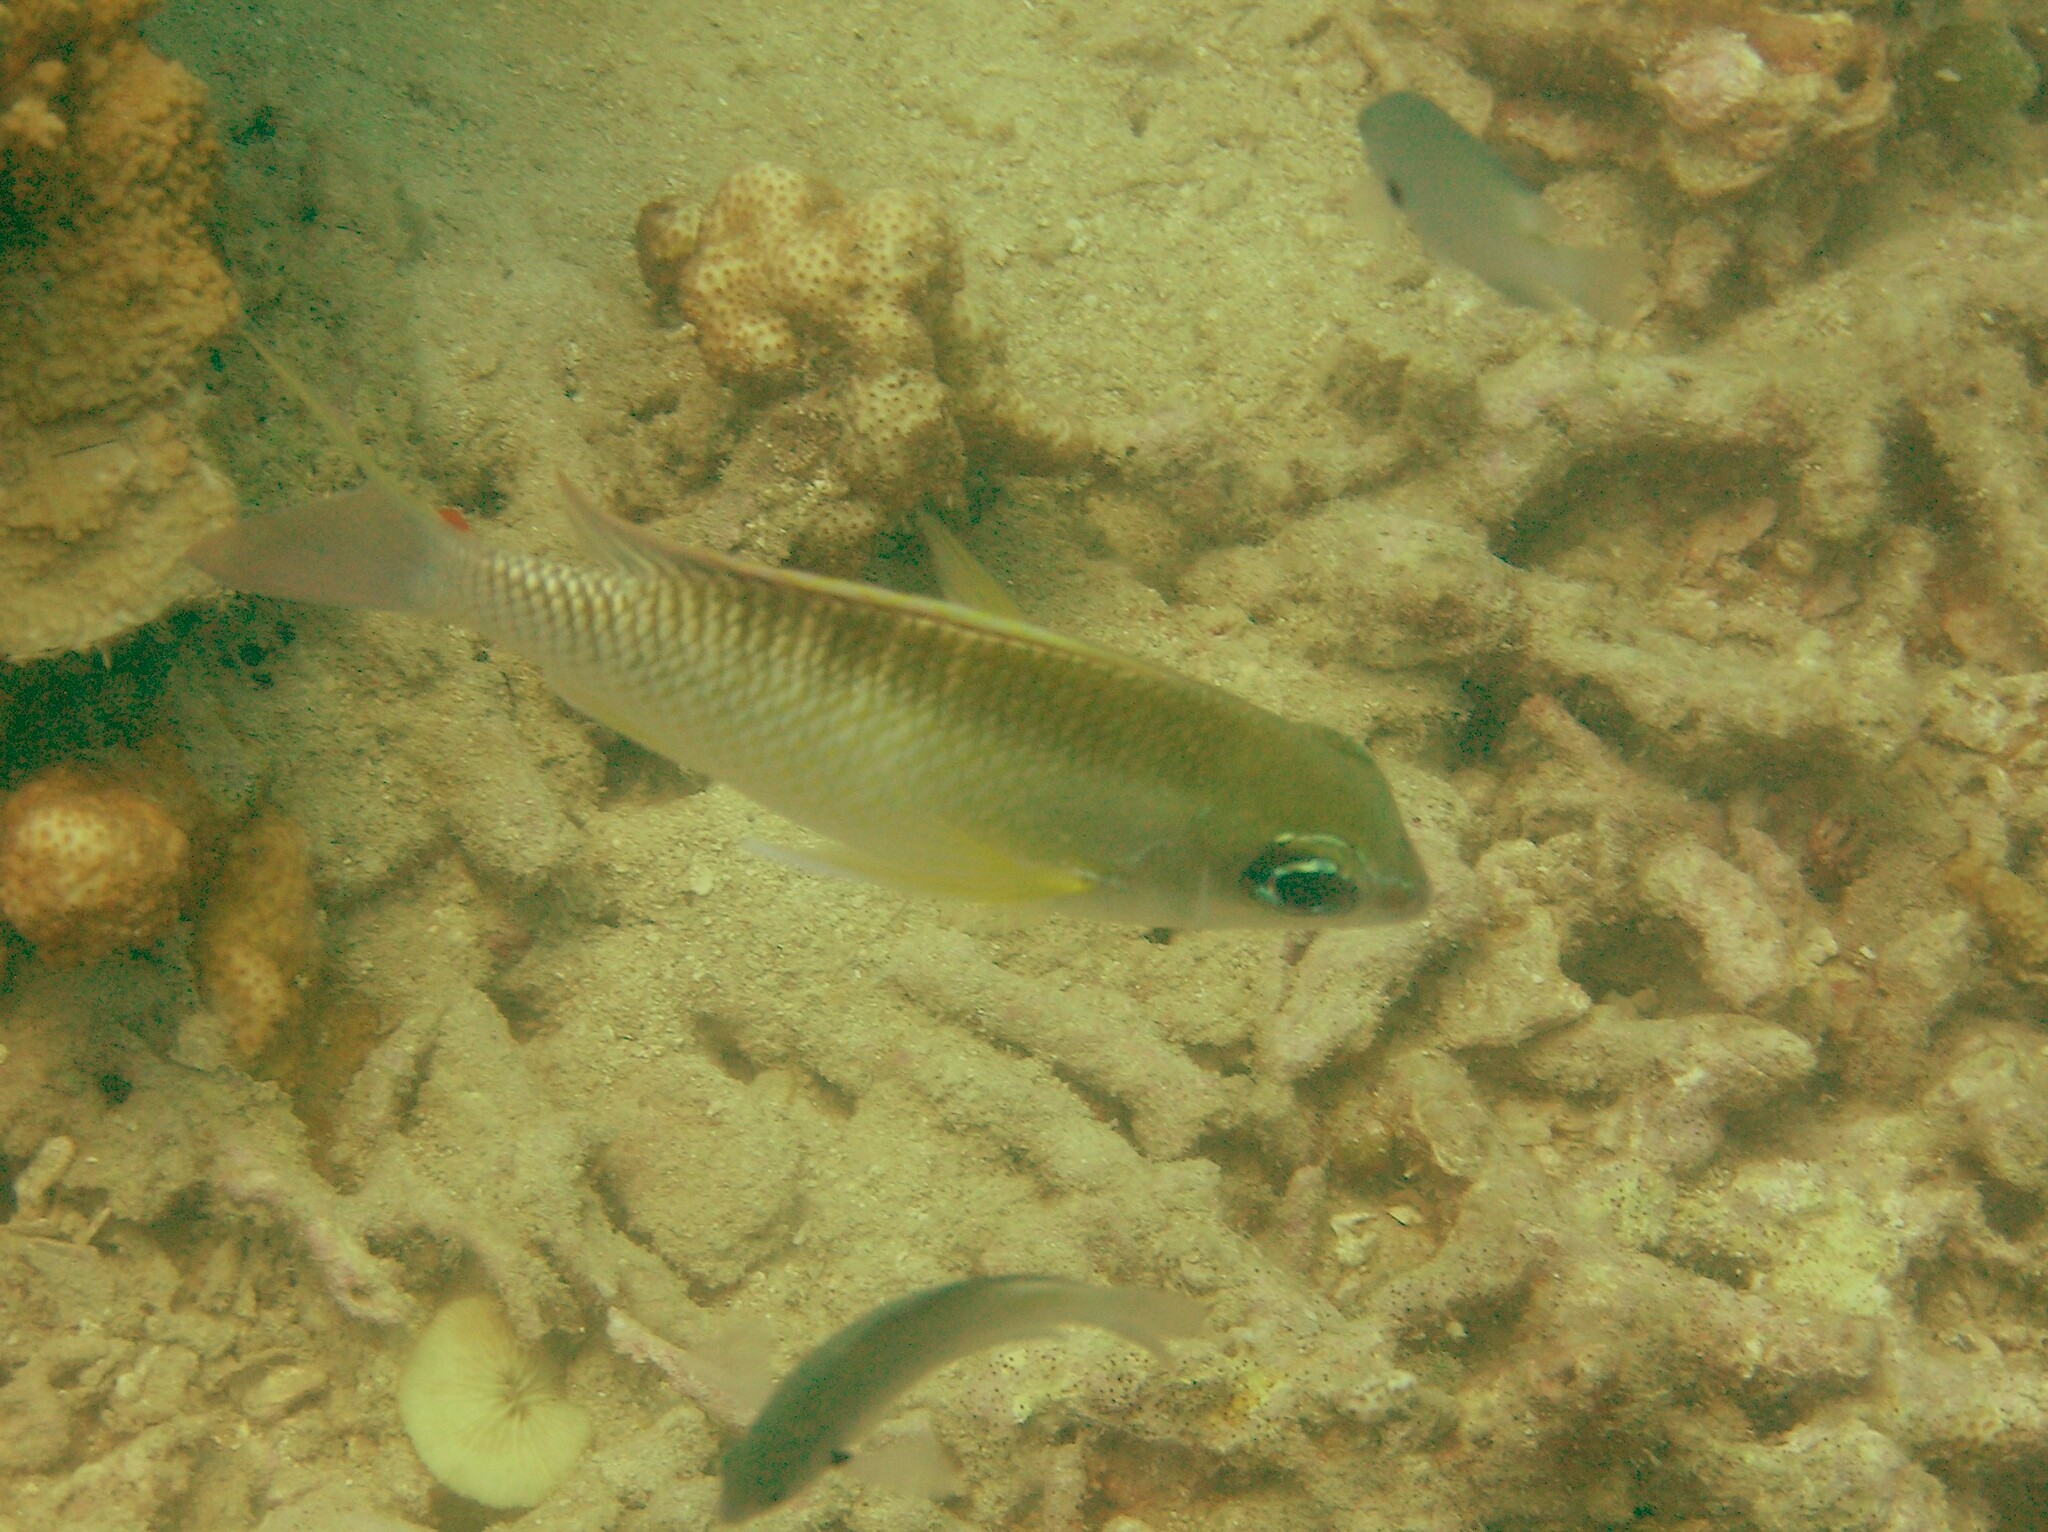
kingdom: Animalia
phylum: Chordata
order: Perciformes
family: Nemipteridae
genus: Scolopsis
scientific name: Scolopsis margaritifera
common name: Pearly monocle bream
